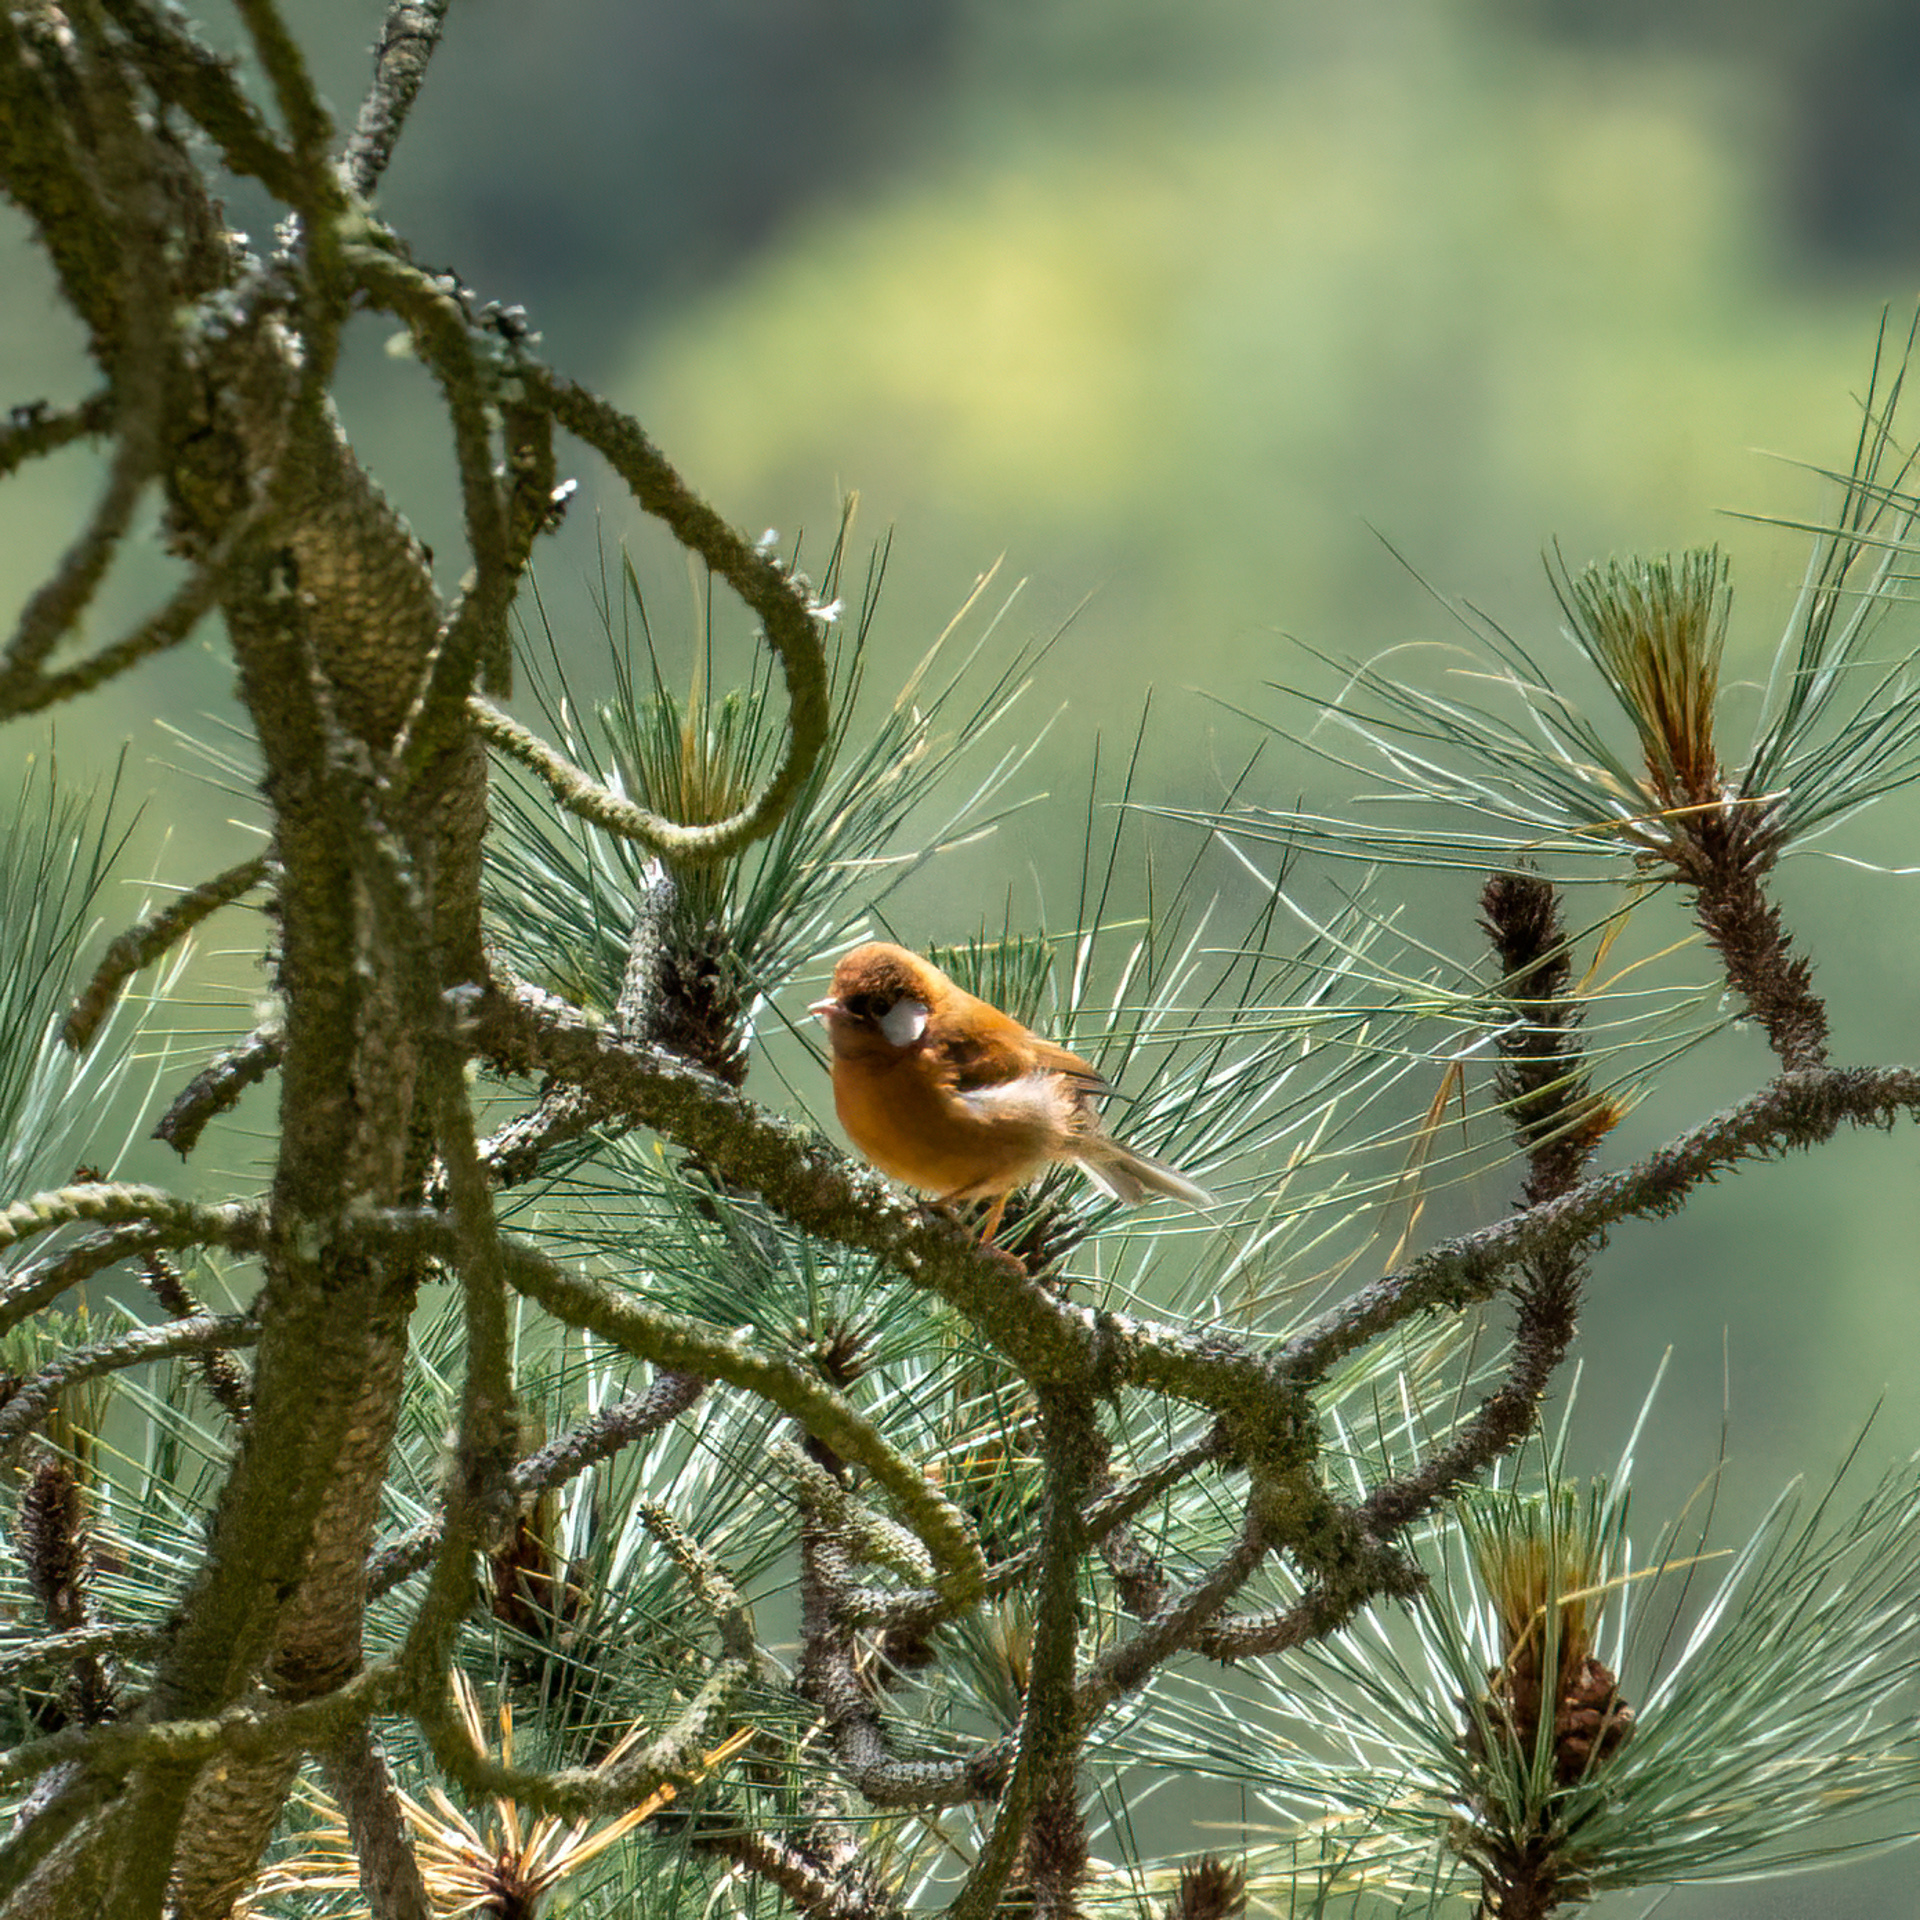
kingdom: Animalia
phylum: Chordata
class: Aves
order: Passeriformes
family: Parulidae
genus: Cardellina
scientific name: Cardellina rubra
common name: Red warbler
